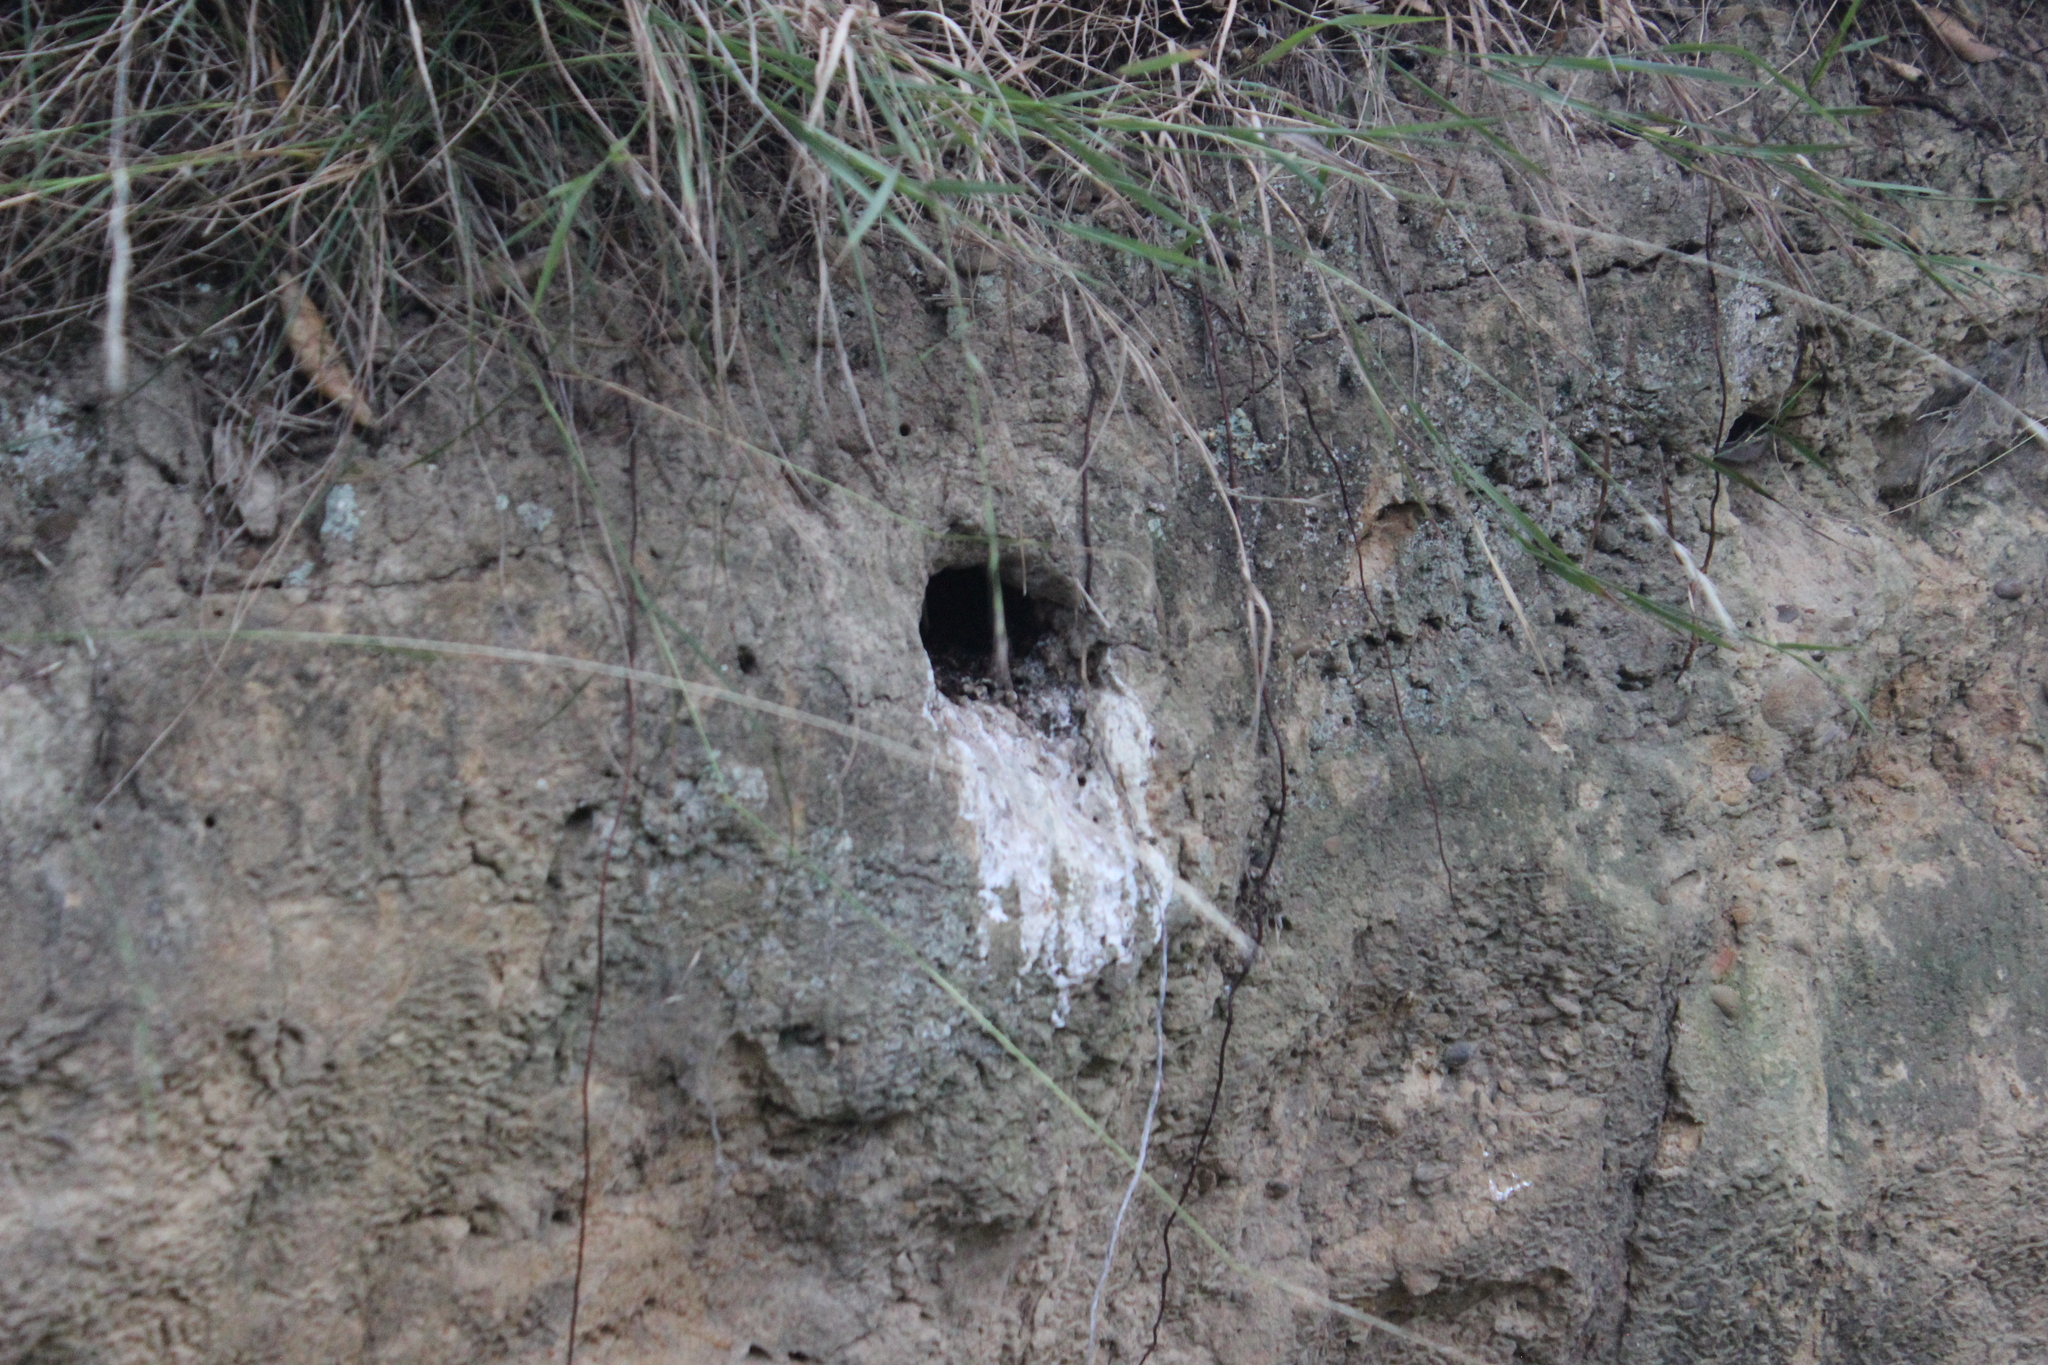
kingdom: Animalia
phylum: Chordata
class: Aves
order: Coraciiformes
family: Alcedinidae
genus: Todiramphus
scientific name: Todiramphus sanctus
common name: Sacred kingfisher
